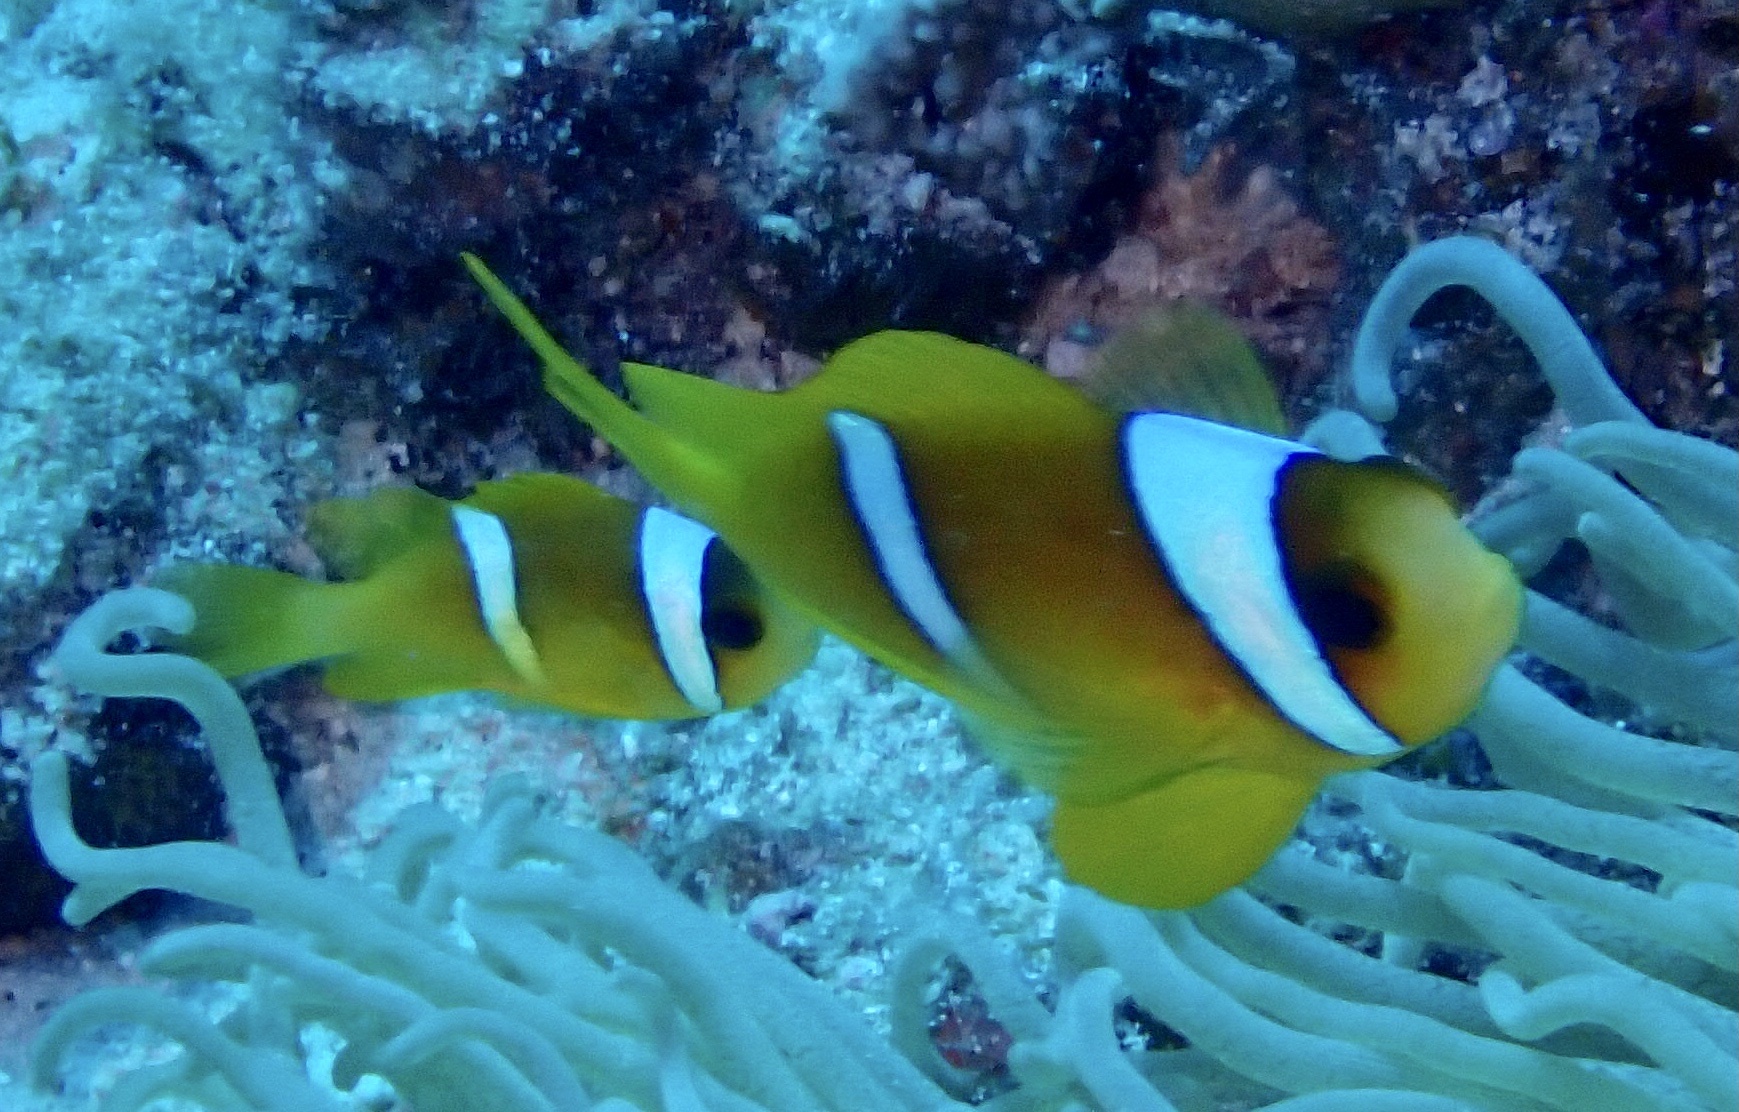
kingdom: Animalia
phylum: Chordata
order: Perciformes
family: Pomacentridae
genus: Amphiprion
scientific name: Amphiprion bicinctus
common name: Two-banded anemonefish
